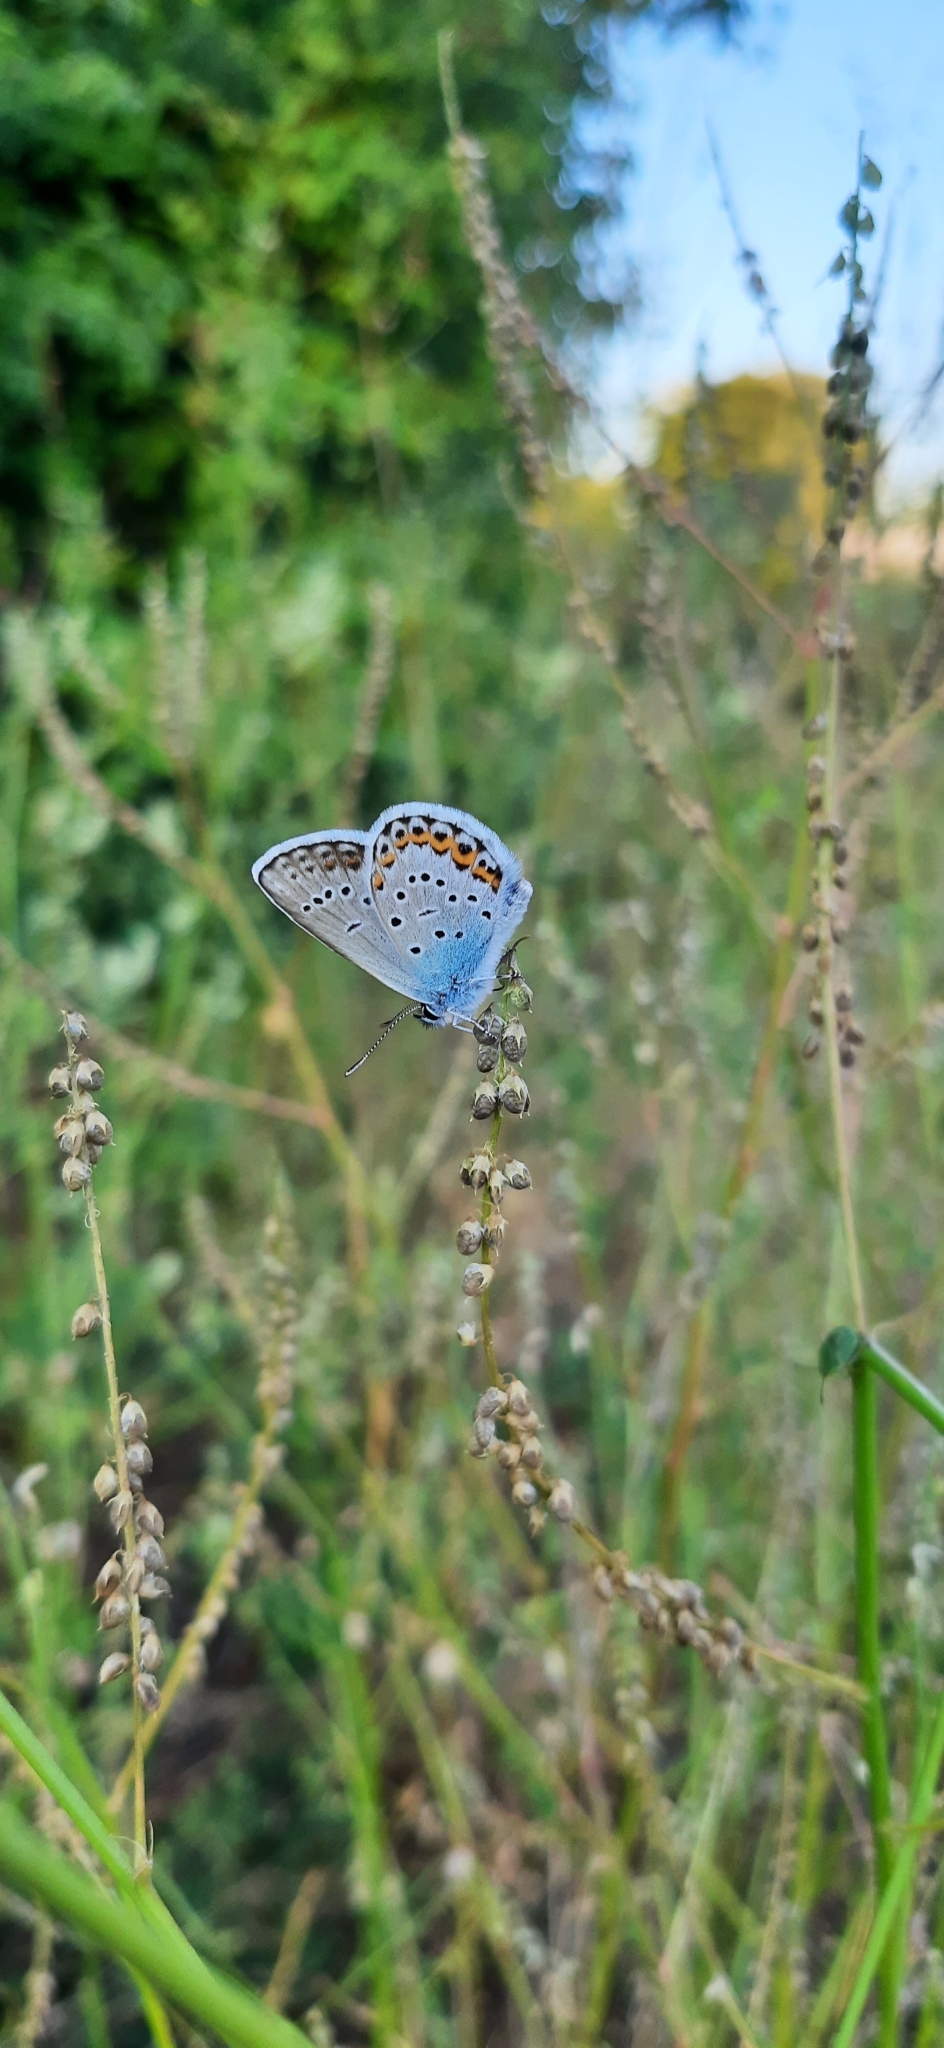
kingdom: Animalia
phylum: Arthropoda
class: Insecta
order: Lepidoptera
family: Lycaenidae
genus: Lycaeides
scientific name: Lycaeides idas
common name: Northern blue
